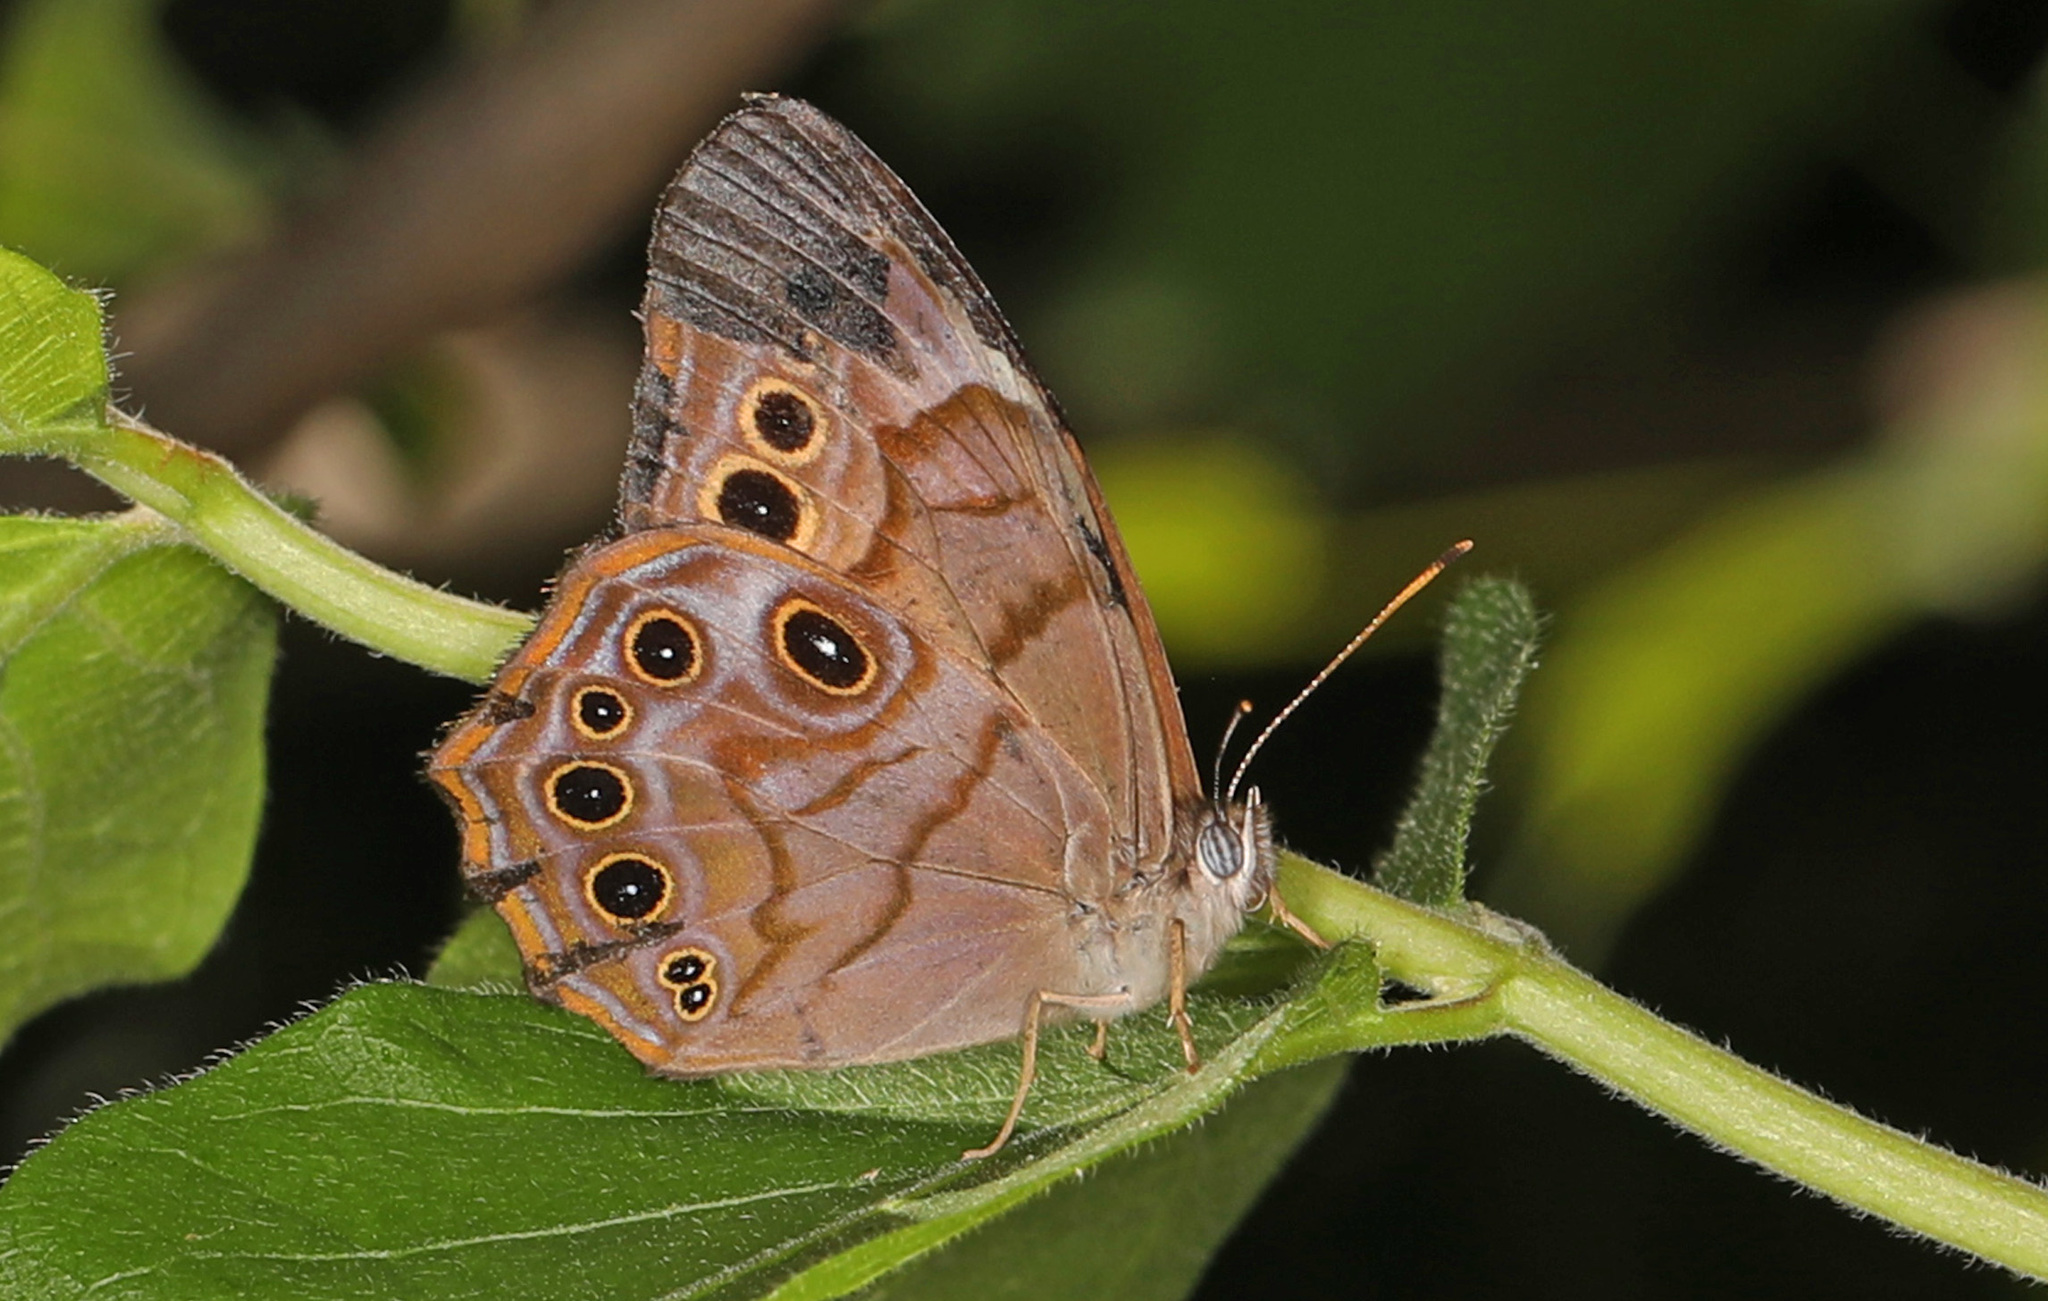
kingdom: Animalia
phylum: Arthropoda
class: Insecta
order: Lepidoptera
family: Nymphalidae
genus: Lethe
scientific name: Lethe anthedon
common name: Northern pearly-eye
